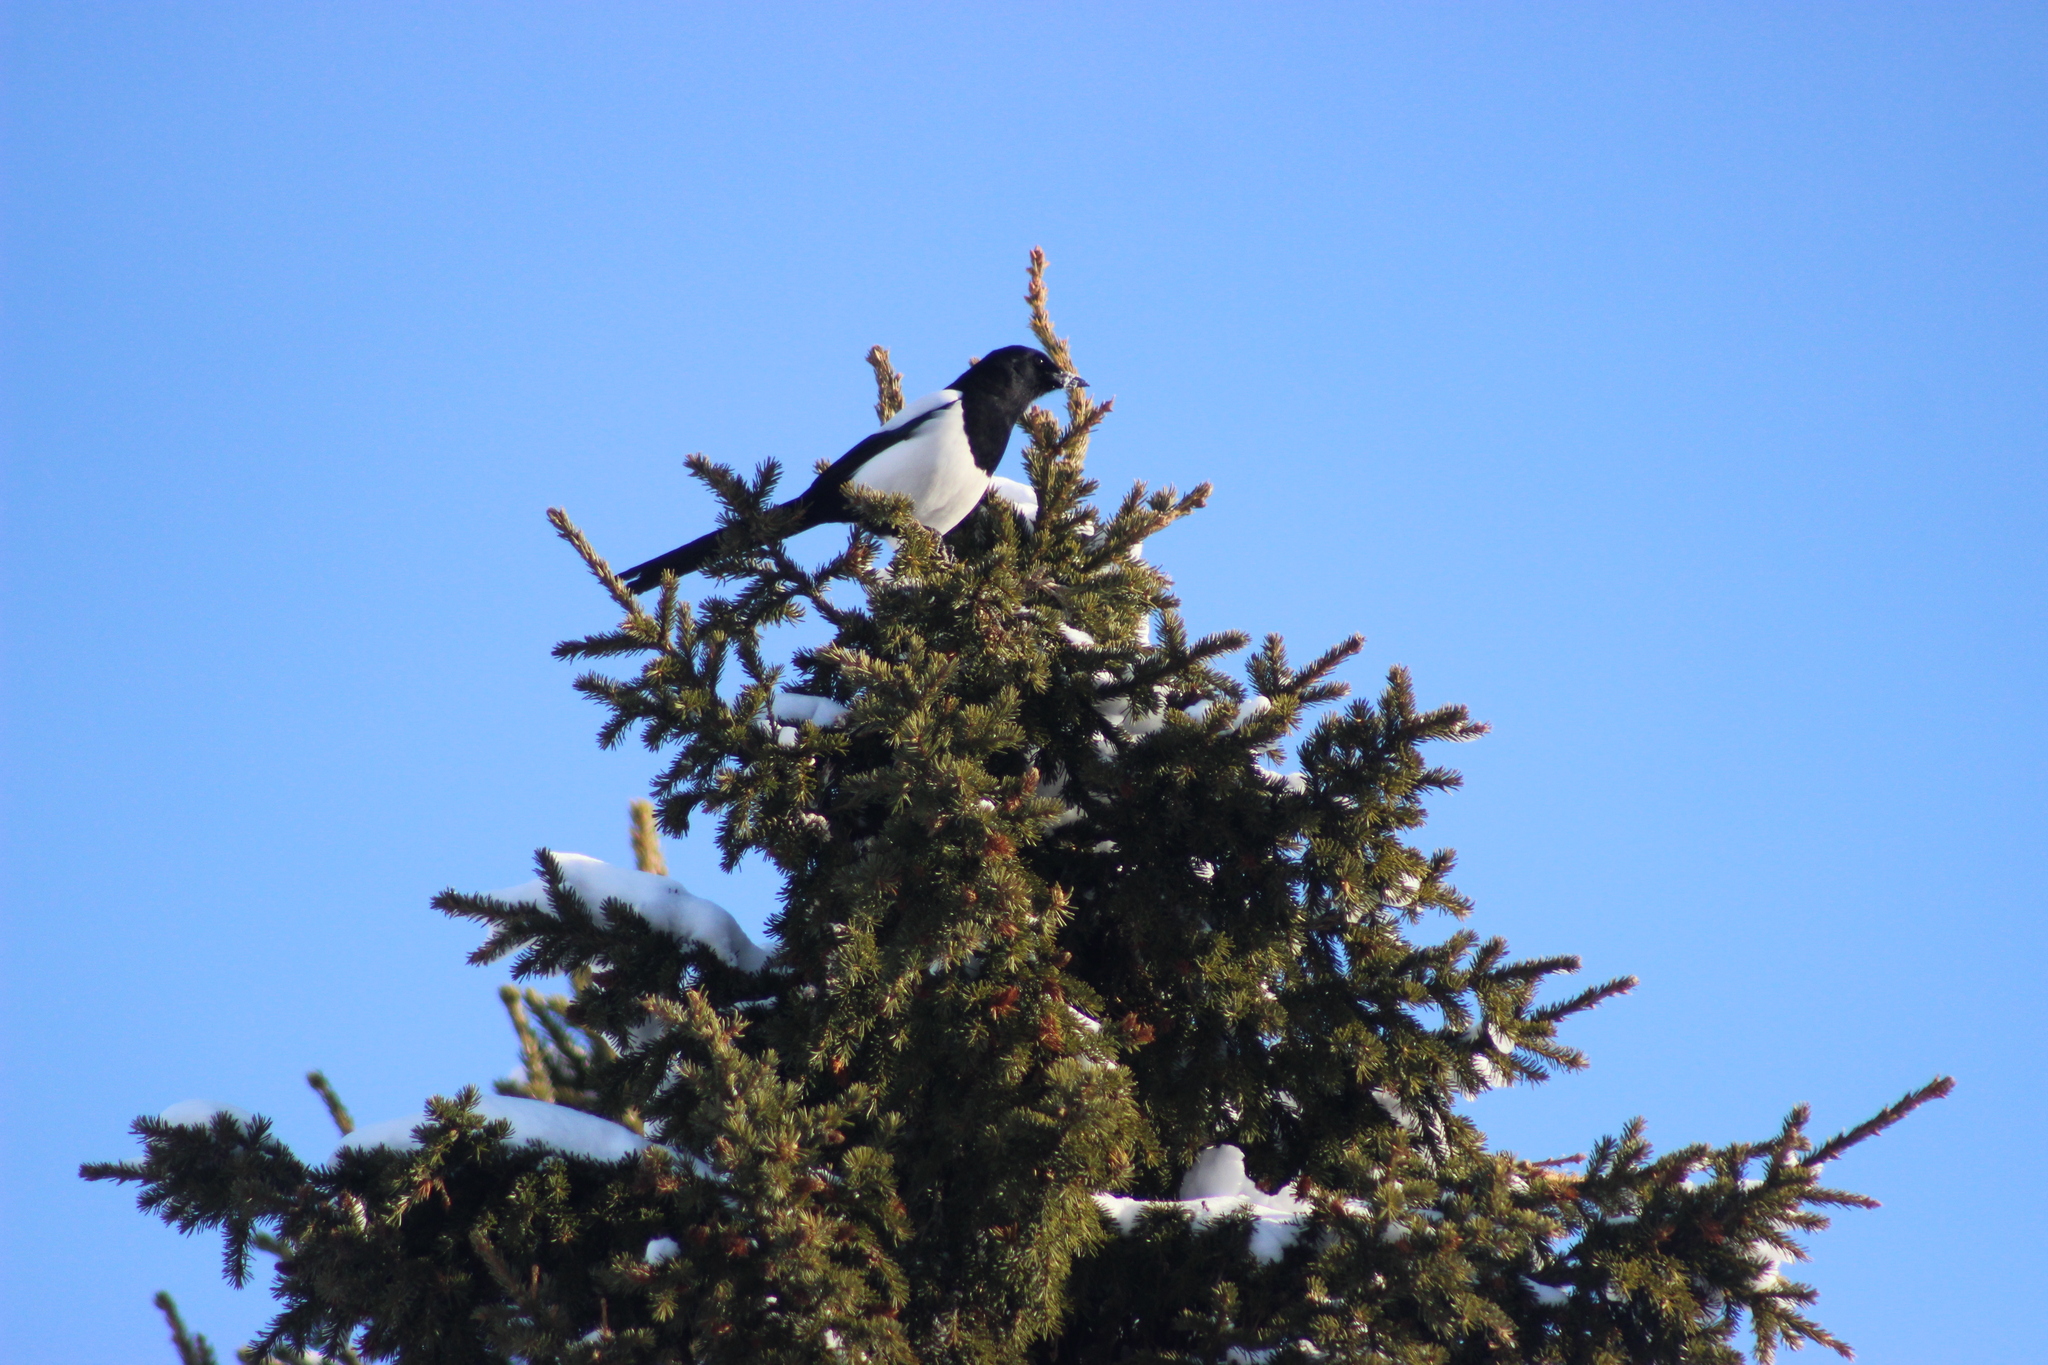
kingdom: Animalia
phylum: Chordata
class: Aves
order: Passeriformes
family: Corvidae
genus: Pica
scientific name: Pica pica
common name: Eurasian magpie
